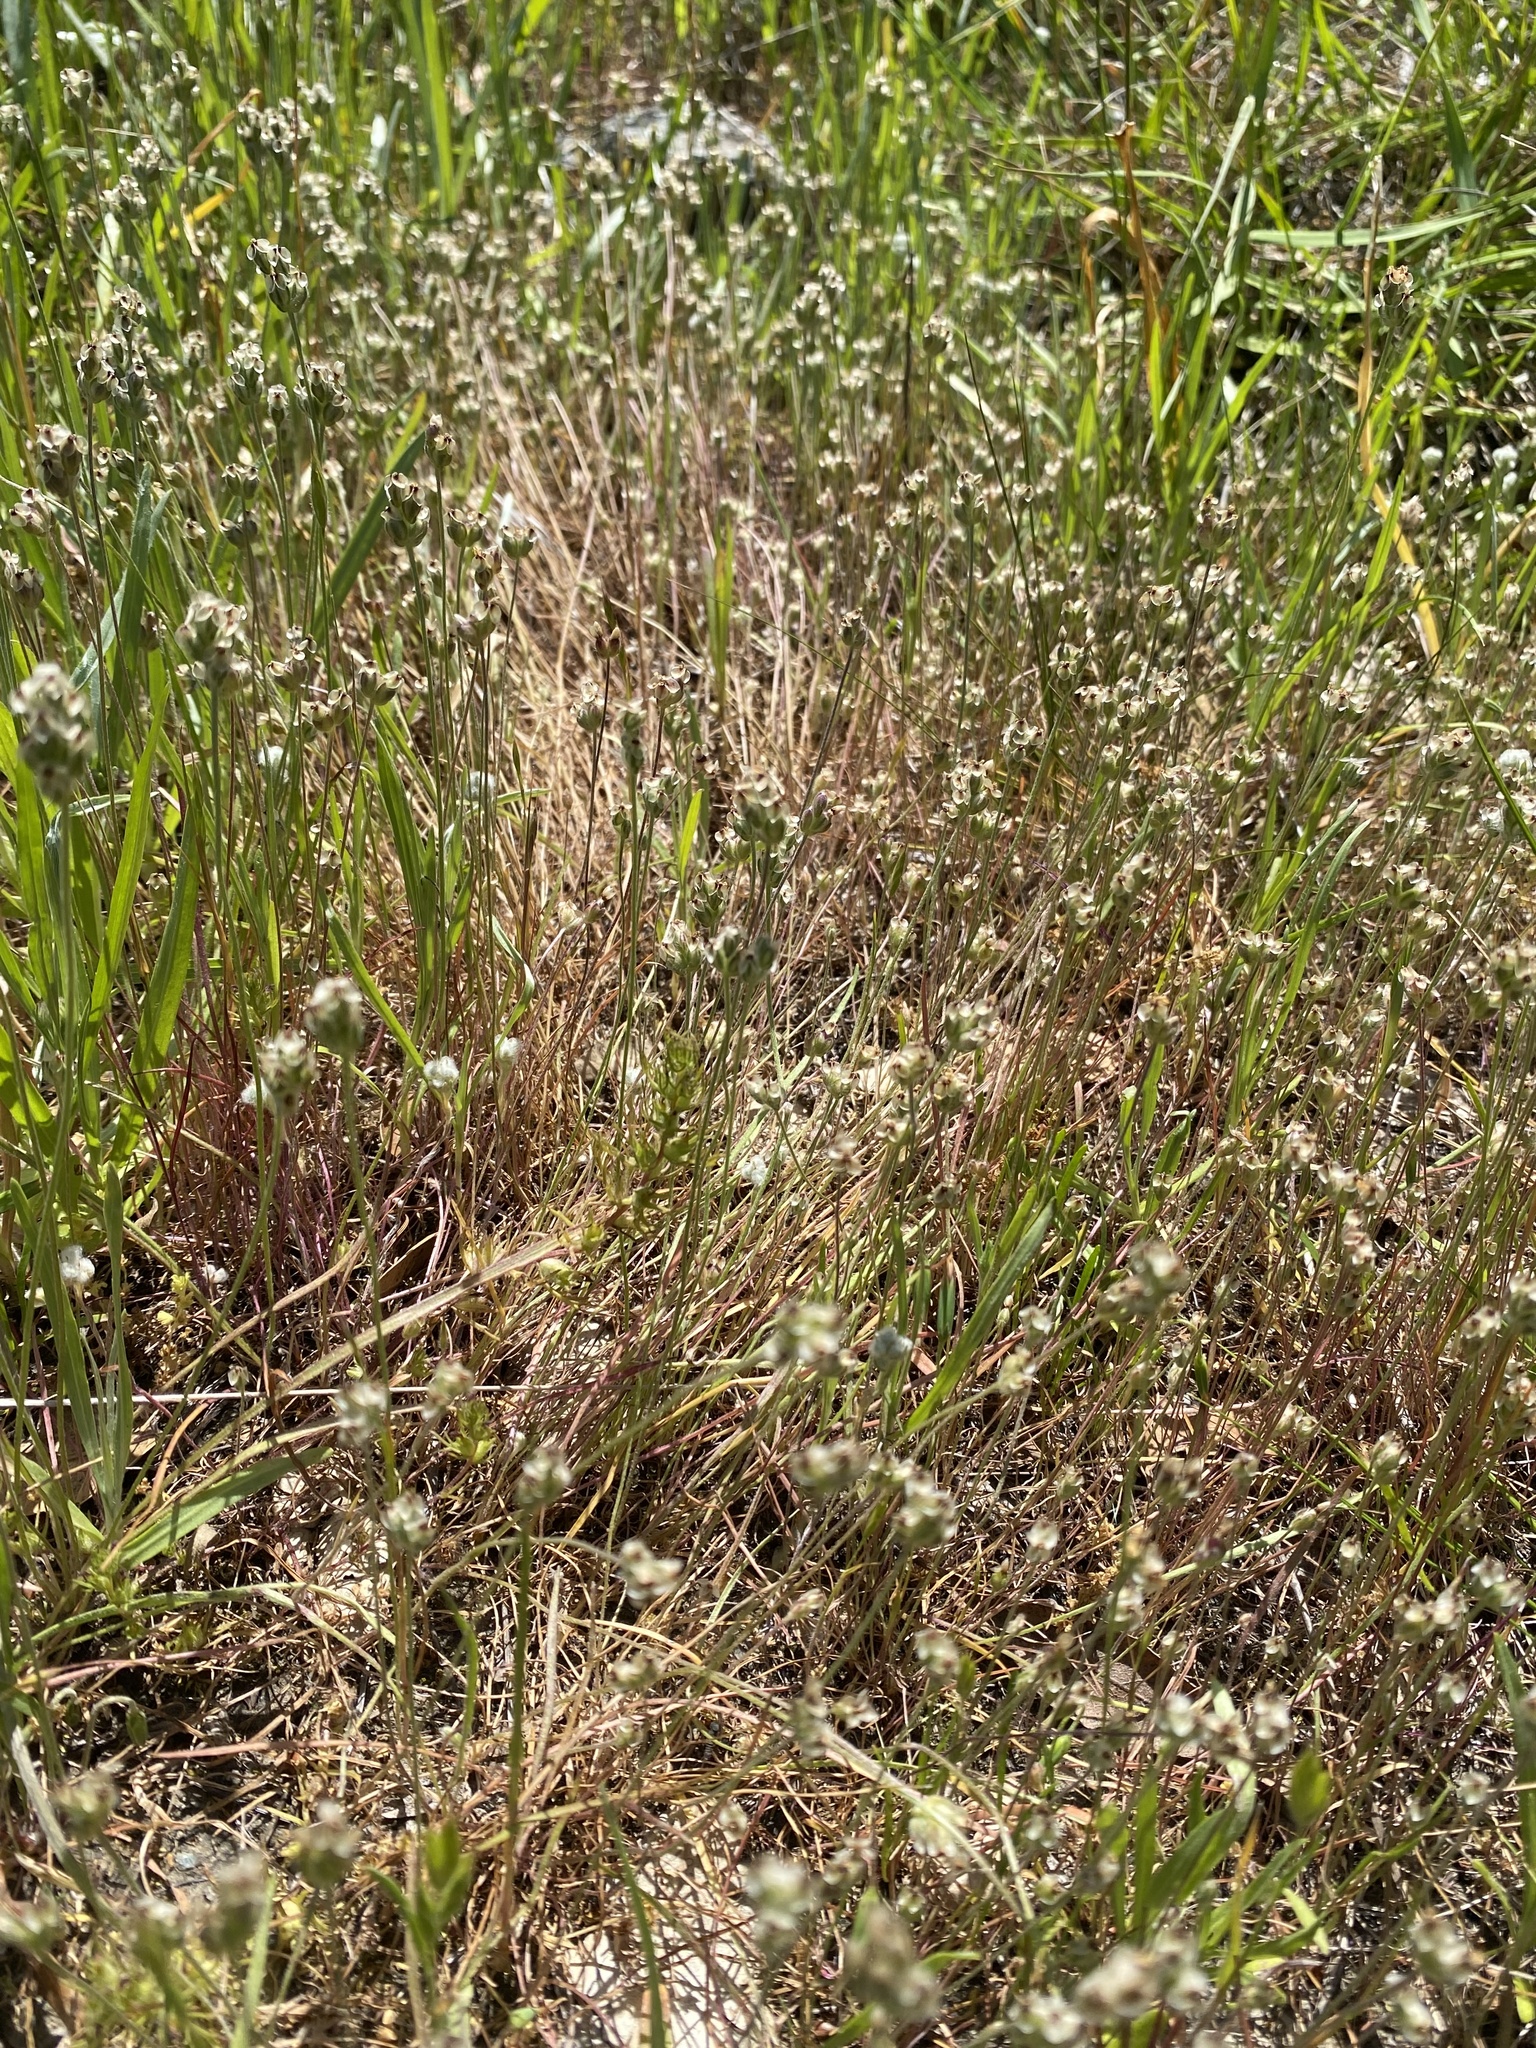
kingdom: Plantae
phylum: Tracheophyta
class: Magnoliopsida
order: Lamiales
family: Plantaginaceae
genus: Plantago
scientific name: Plantago erecta
